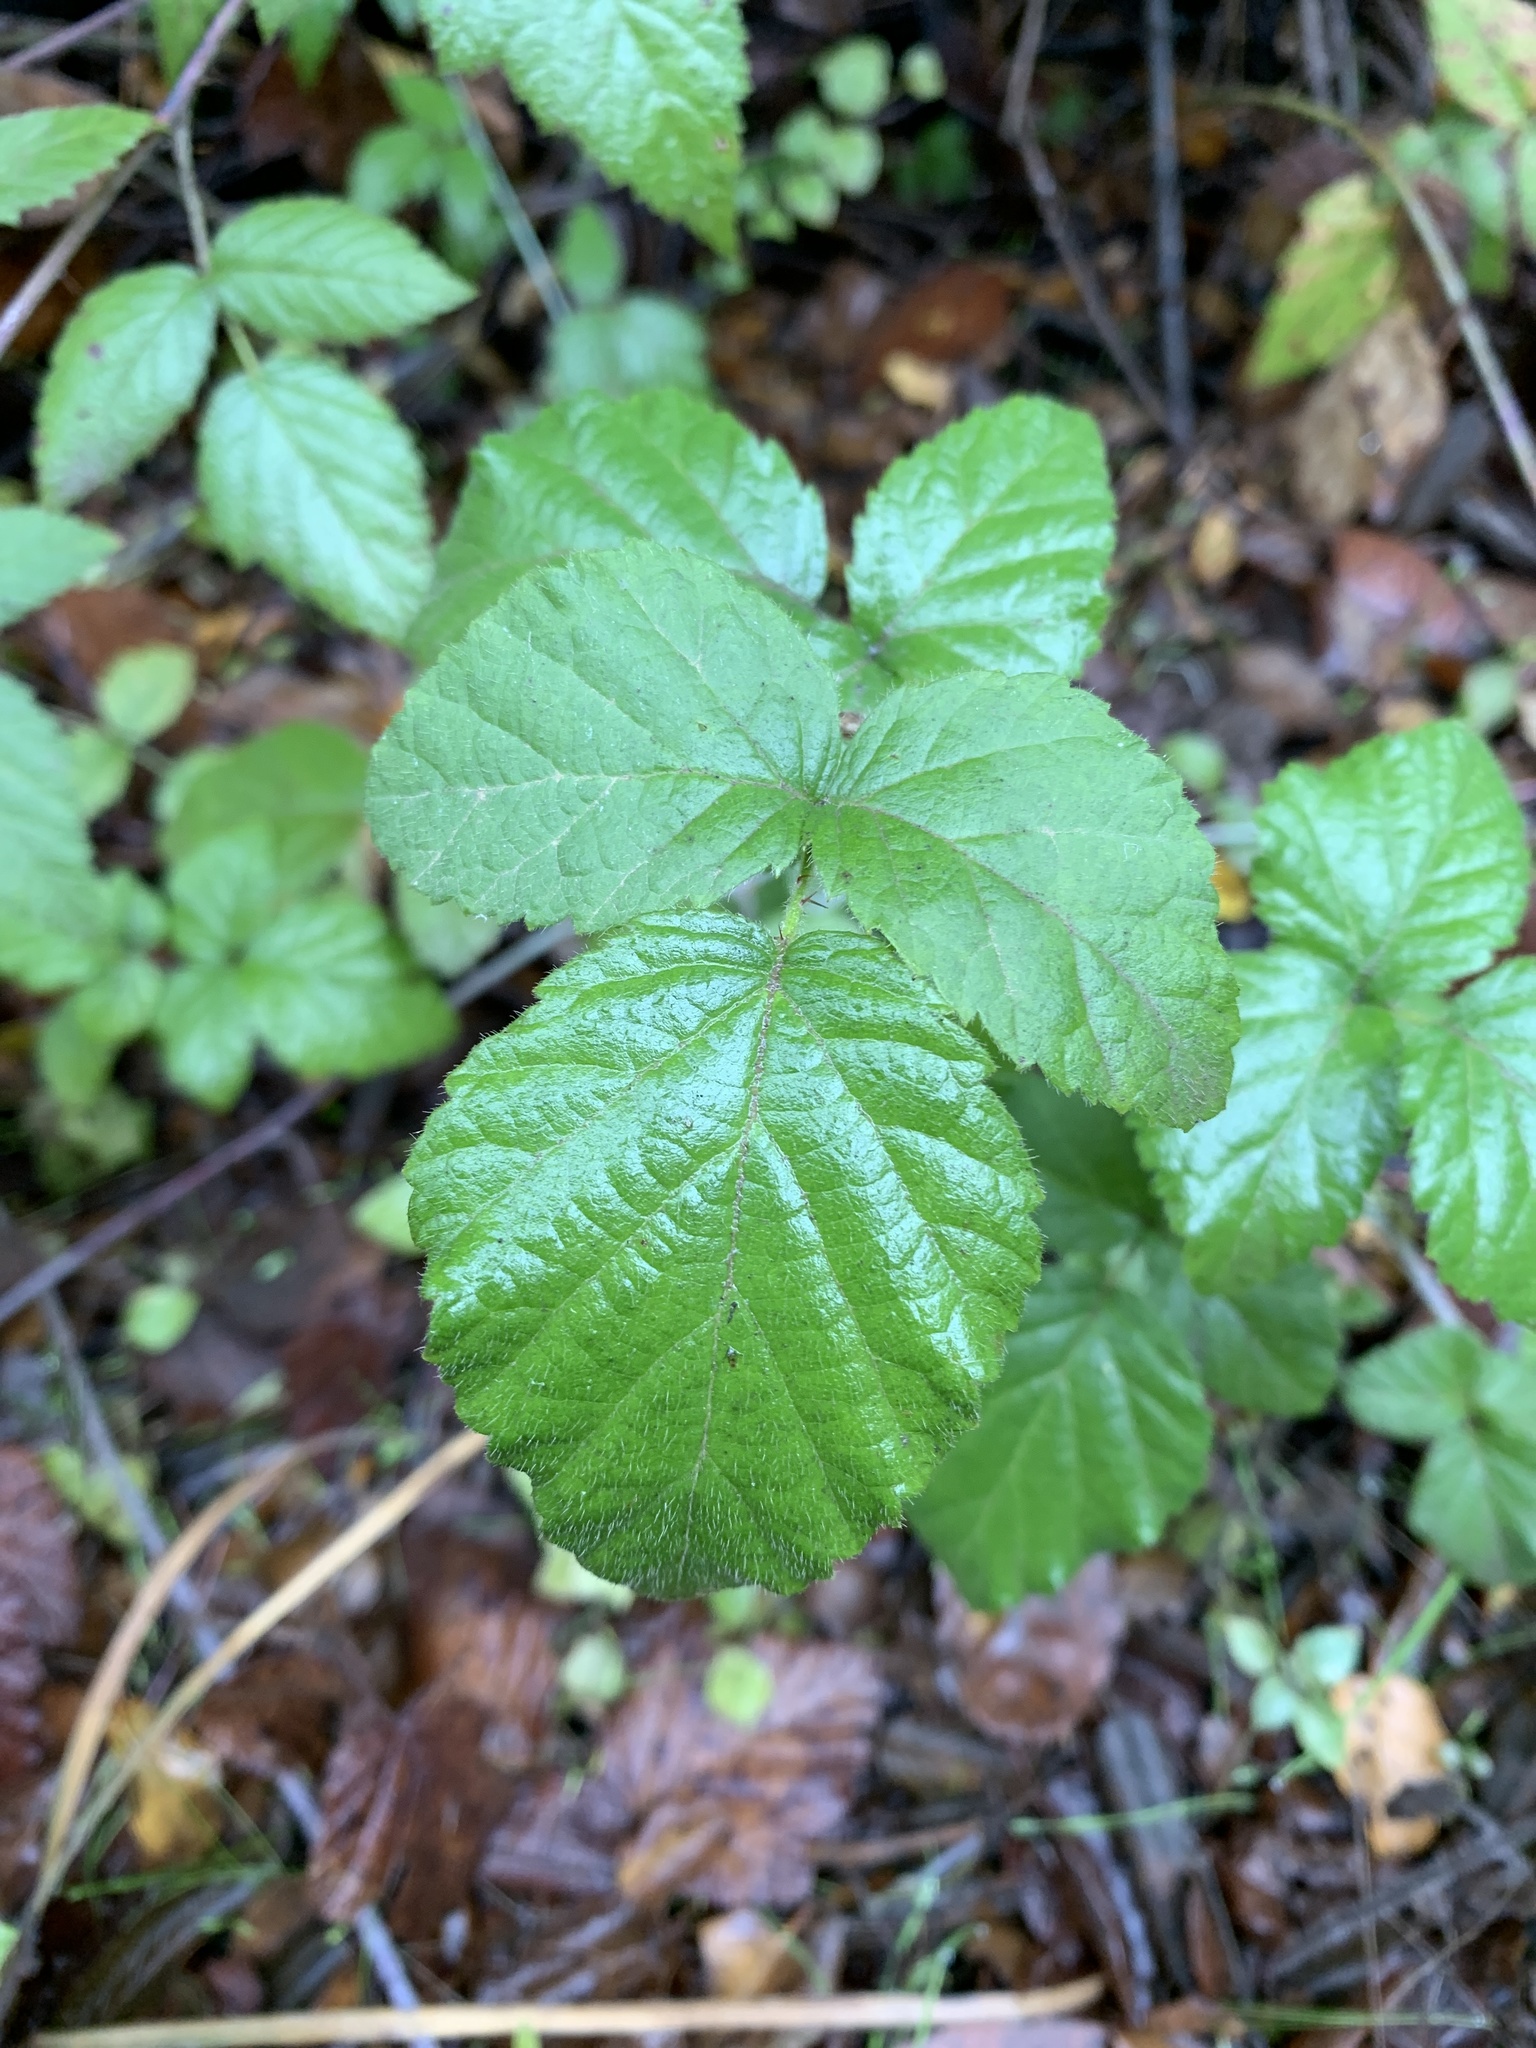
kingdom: Plantae
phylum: Tracheophyta
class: Magnoliopsida
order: Rosales
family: Rosaceae
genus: Rubus
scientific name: Rubus ursinus
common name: Pacific blackberry
